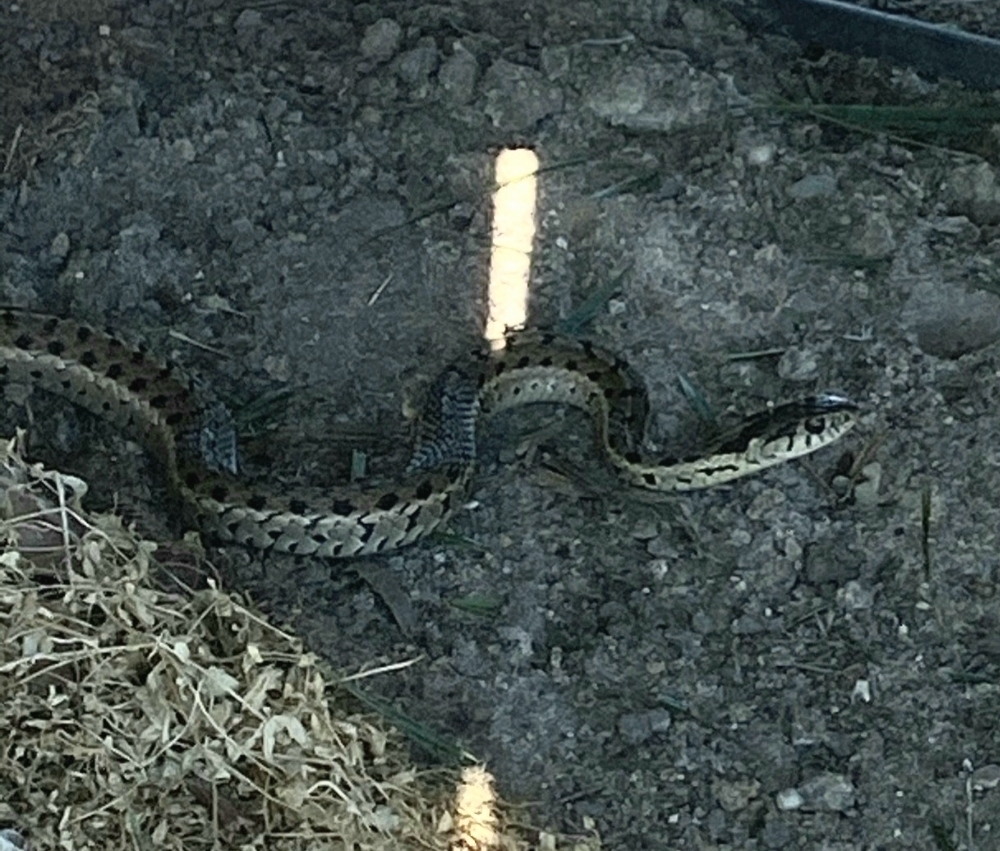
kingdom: Animalia
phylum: Chordata
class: Squamata
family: Colubridae
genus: Thamnophis
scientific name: Thamnophis sirtalis
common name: Common garter snake
